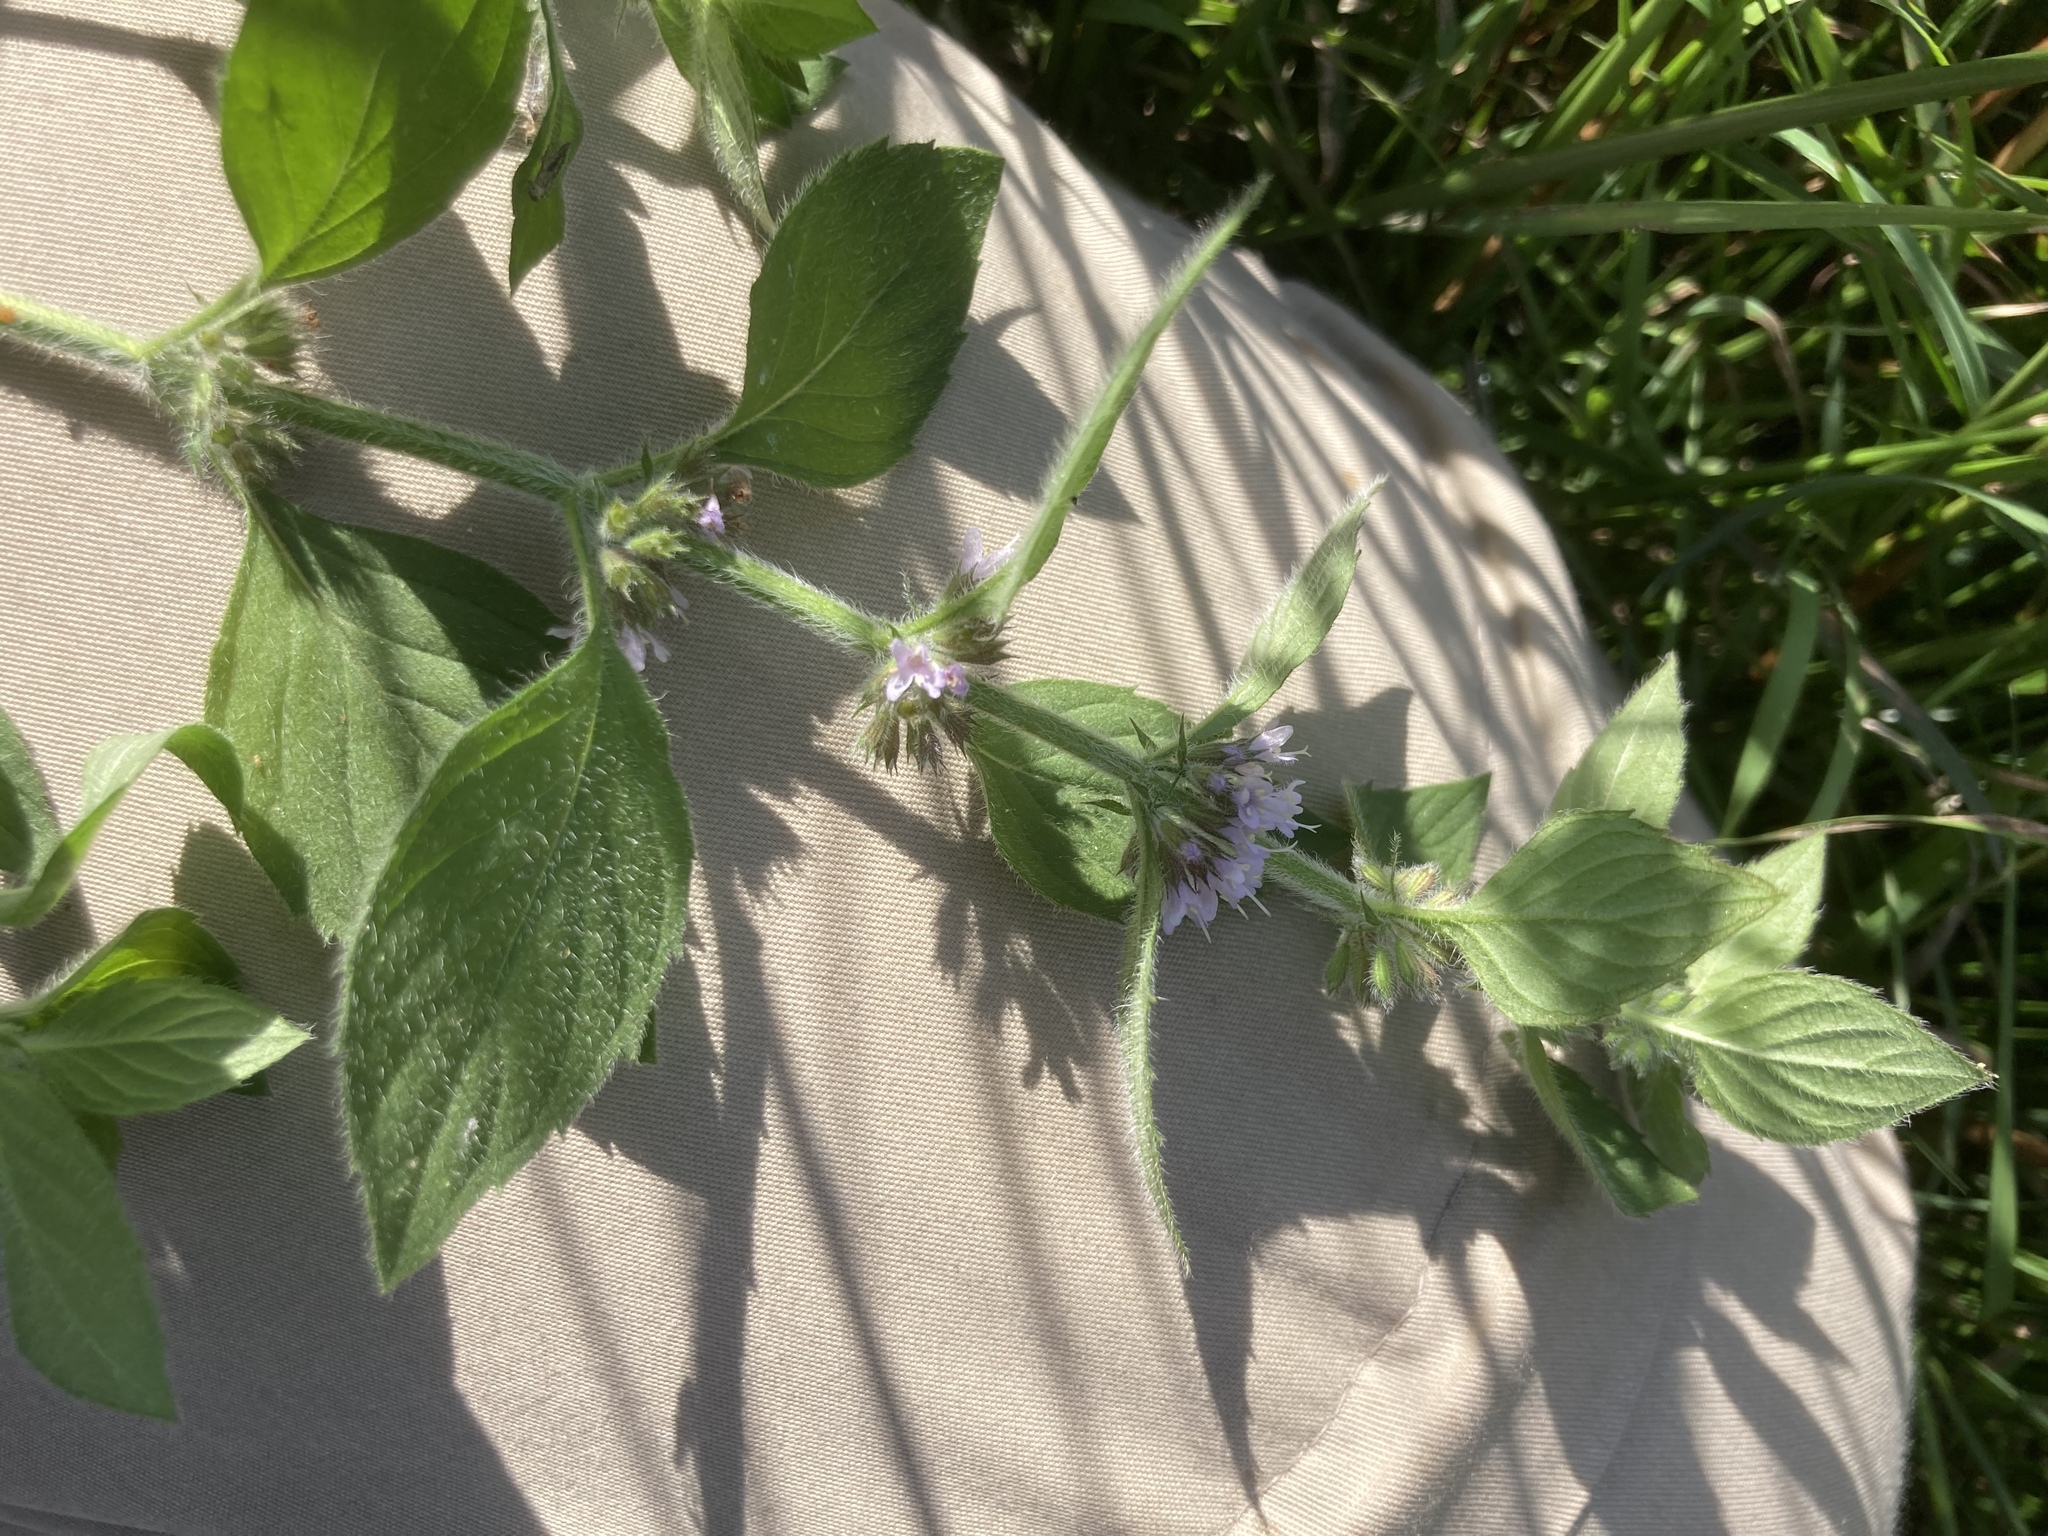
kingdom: Plantae
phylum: Tracheophyta
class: Magnoliopsida
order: Lamiales
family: Lamiaceae
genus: Mentha
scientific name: Mentha arvensis
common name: Corn mint
